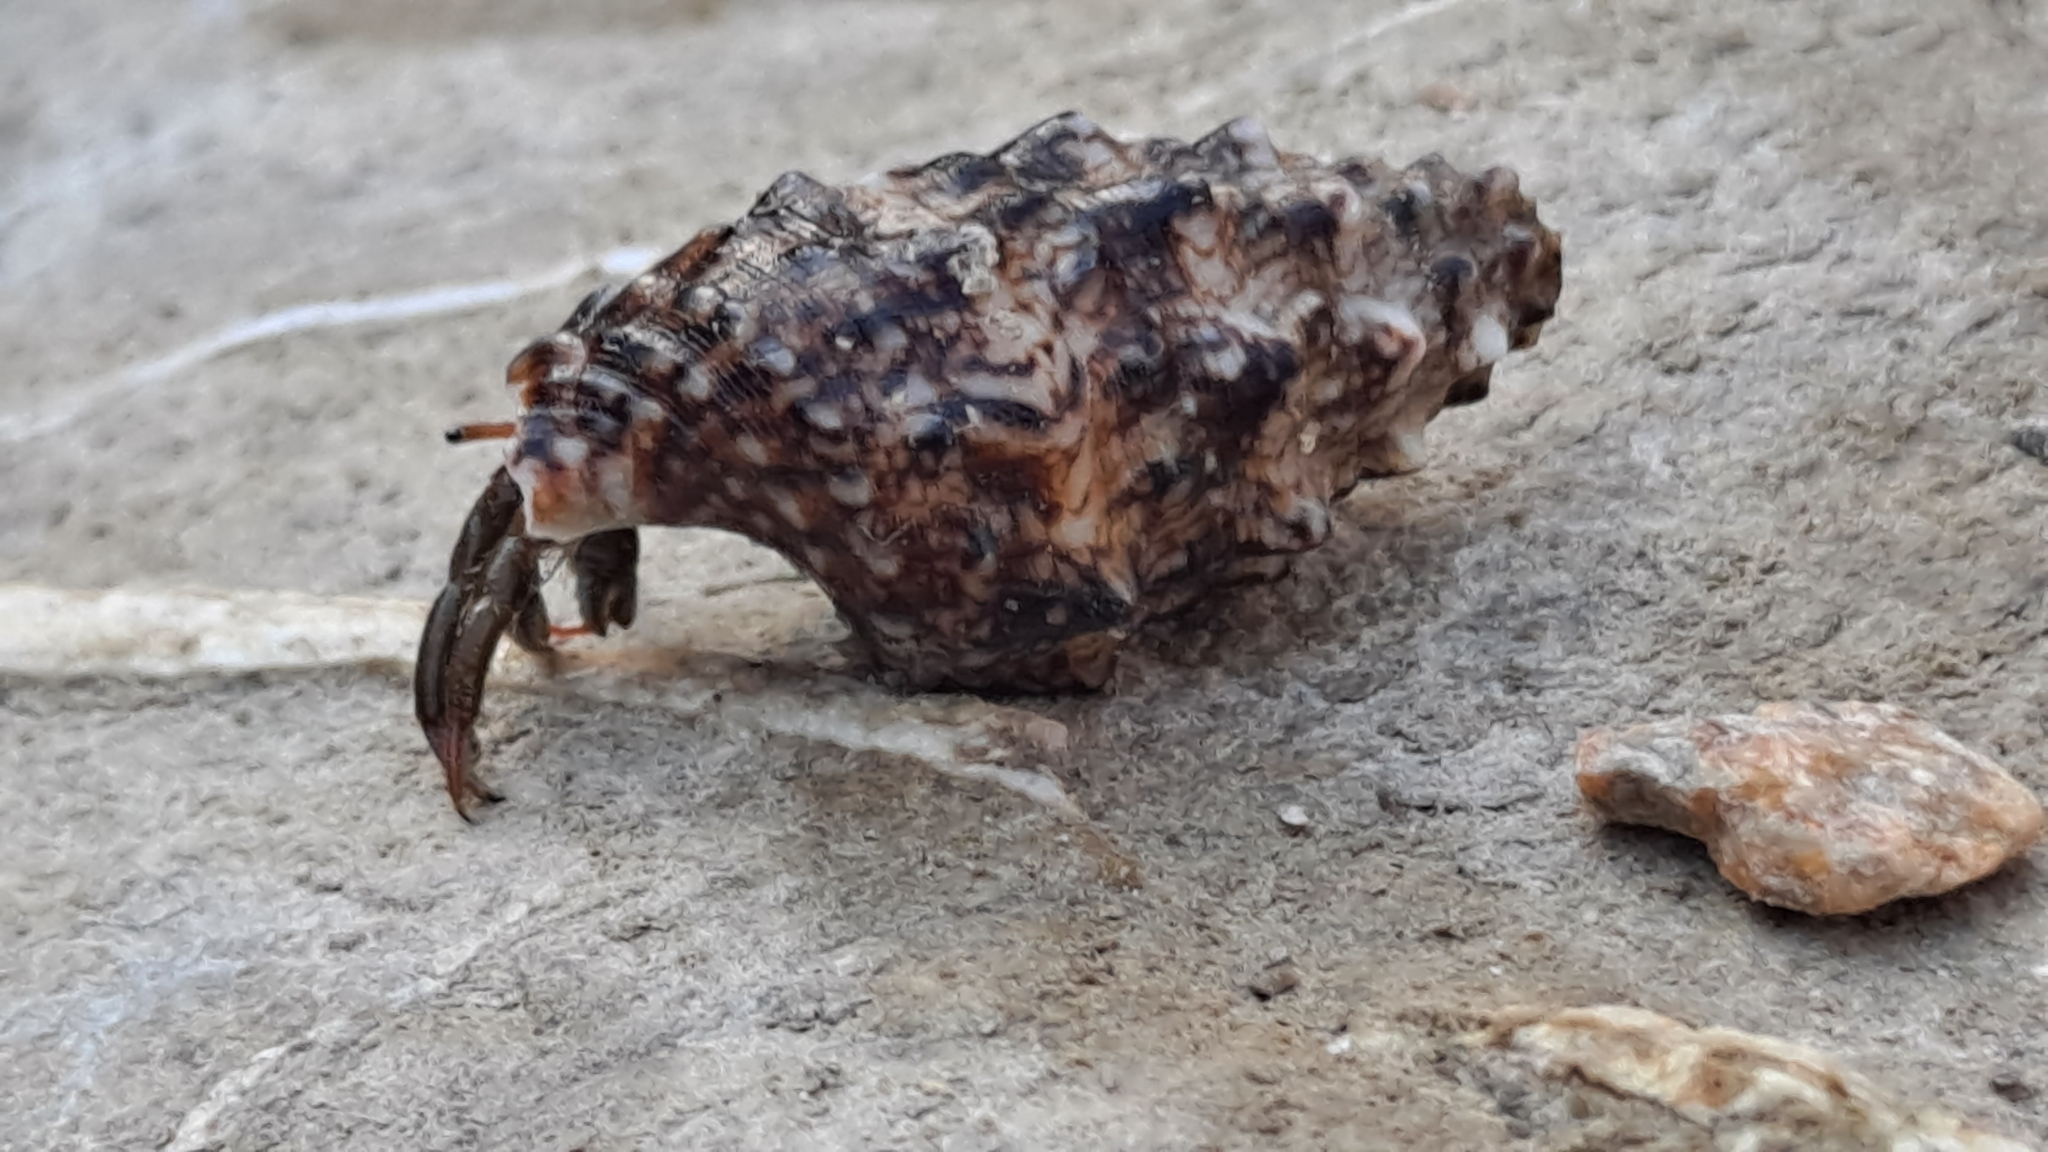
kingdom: Animalia
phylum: Arthropoda
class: Malacostraca
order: Decapoda
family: Diogenidae
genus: Clibanarius
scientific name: Clibanarius erythropus
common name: Hermit crab
